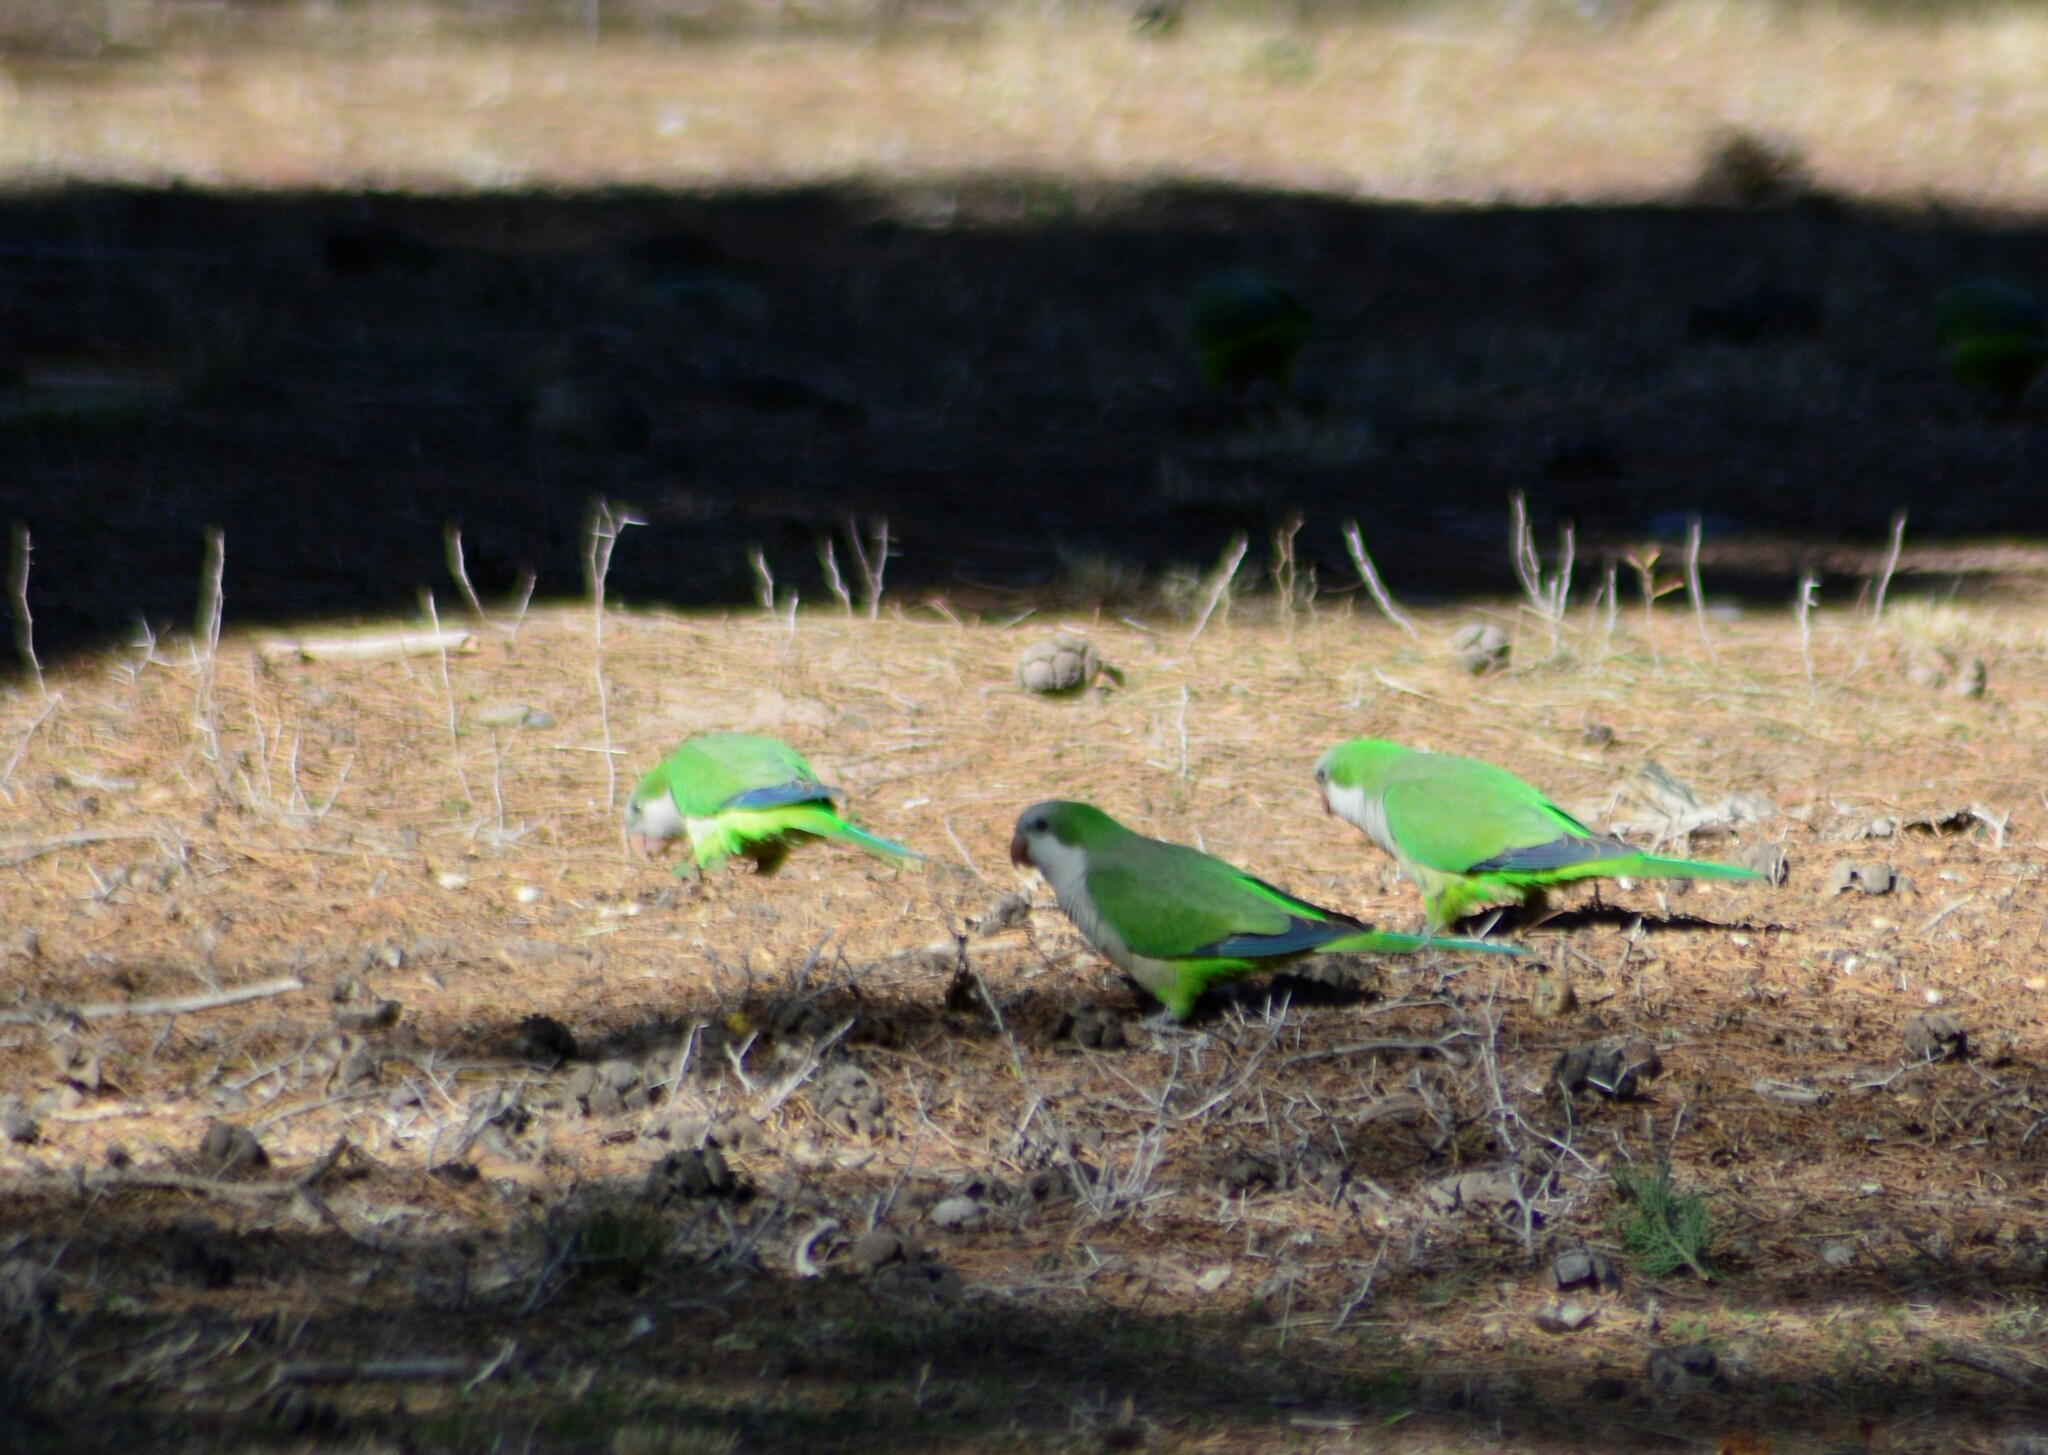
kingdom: Animalia
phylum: Chordata
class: Aves
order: Psittaciformes
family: Psittacidae
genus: Myiopsitta
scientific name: Myiopsitta monachus
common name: Monk parakeet
